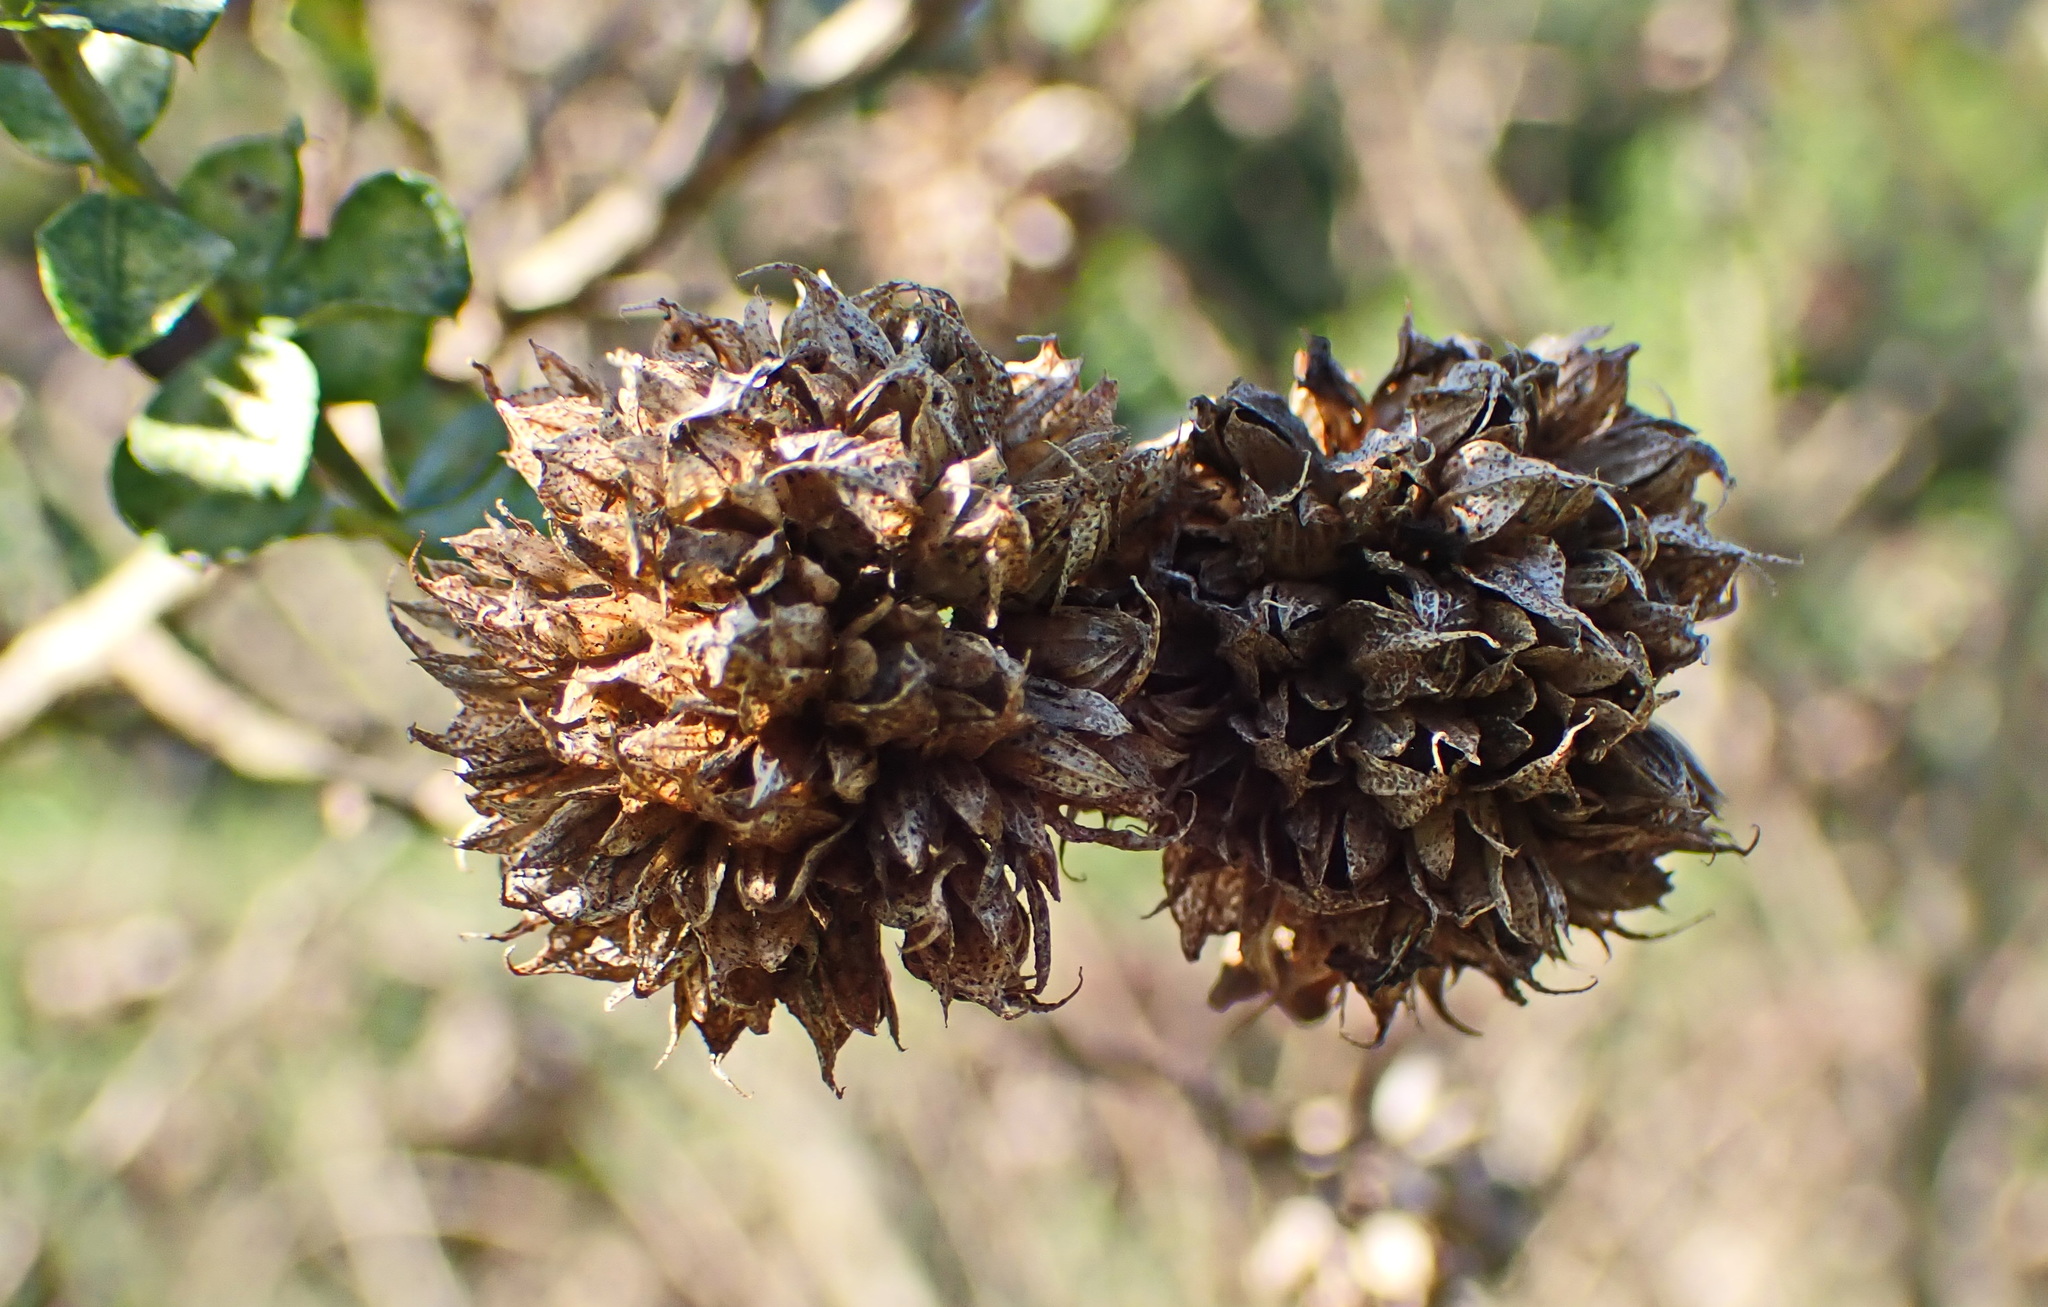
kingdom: Plantae
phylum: Tracheophyta
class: Magnoliopsida
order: Fabales
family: Fabaceae
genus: Psoralea
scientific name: Psoralea acuminata
